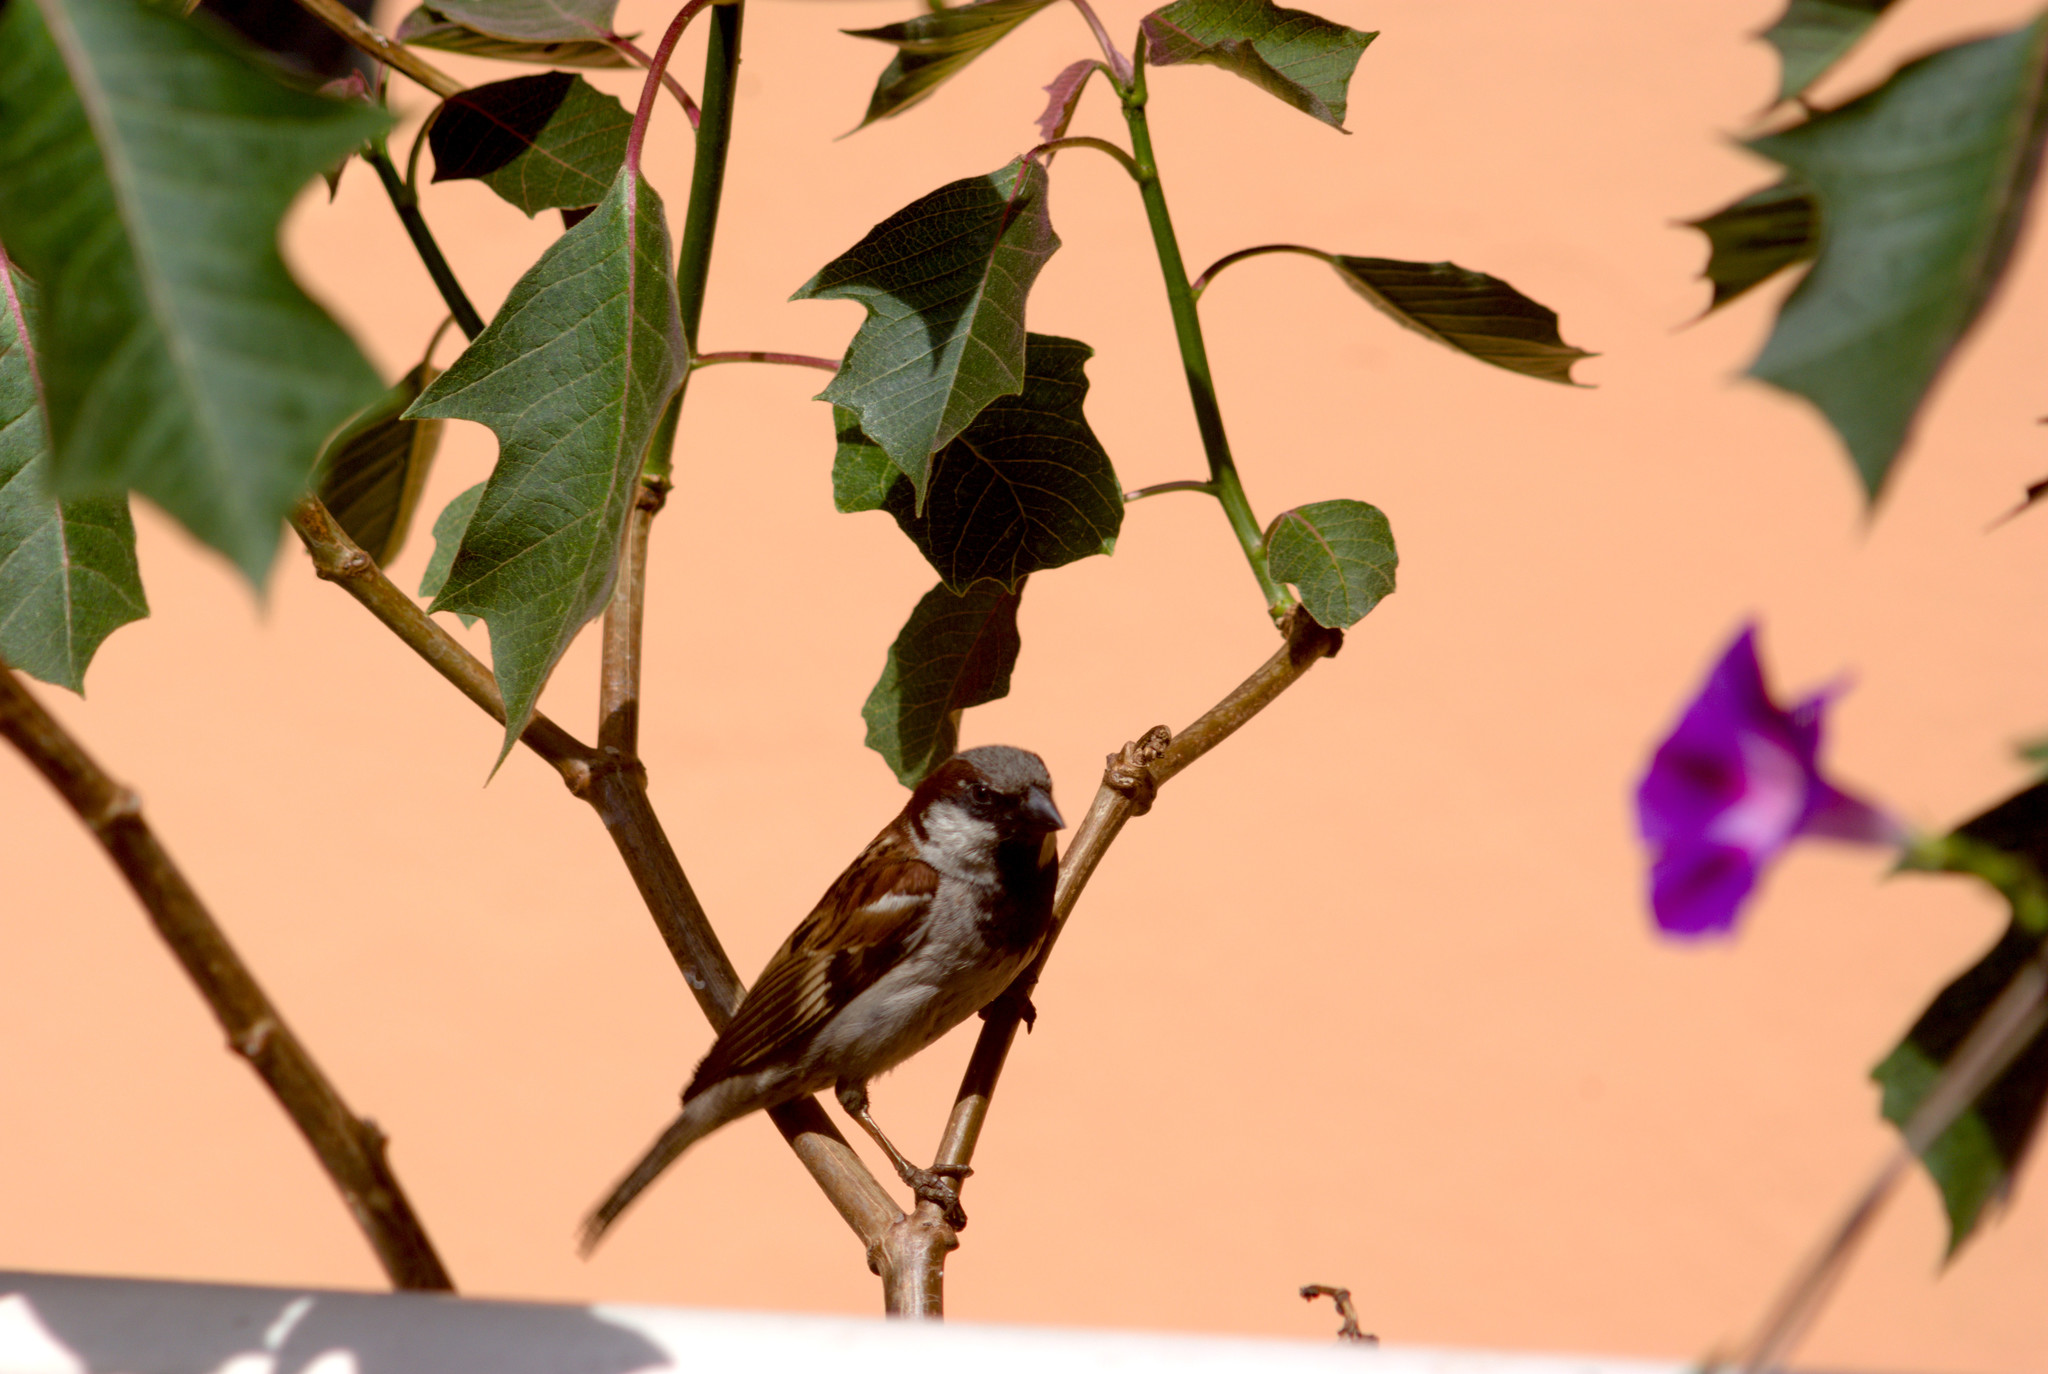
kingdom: Animalia
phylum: Chordata
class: Aves
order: Passeriformes
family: Passeridae
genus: Passer
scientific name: Passer domesticus
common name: House sparrow
